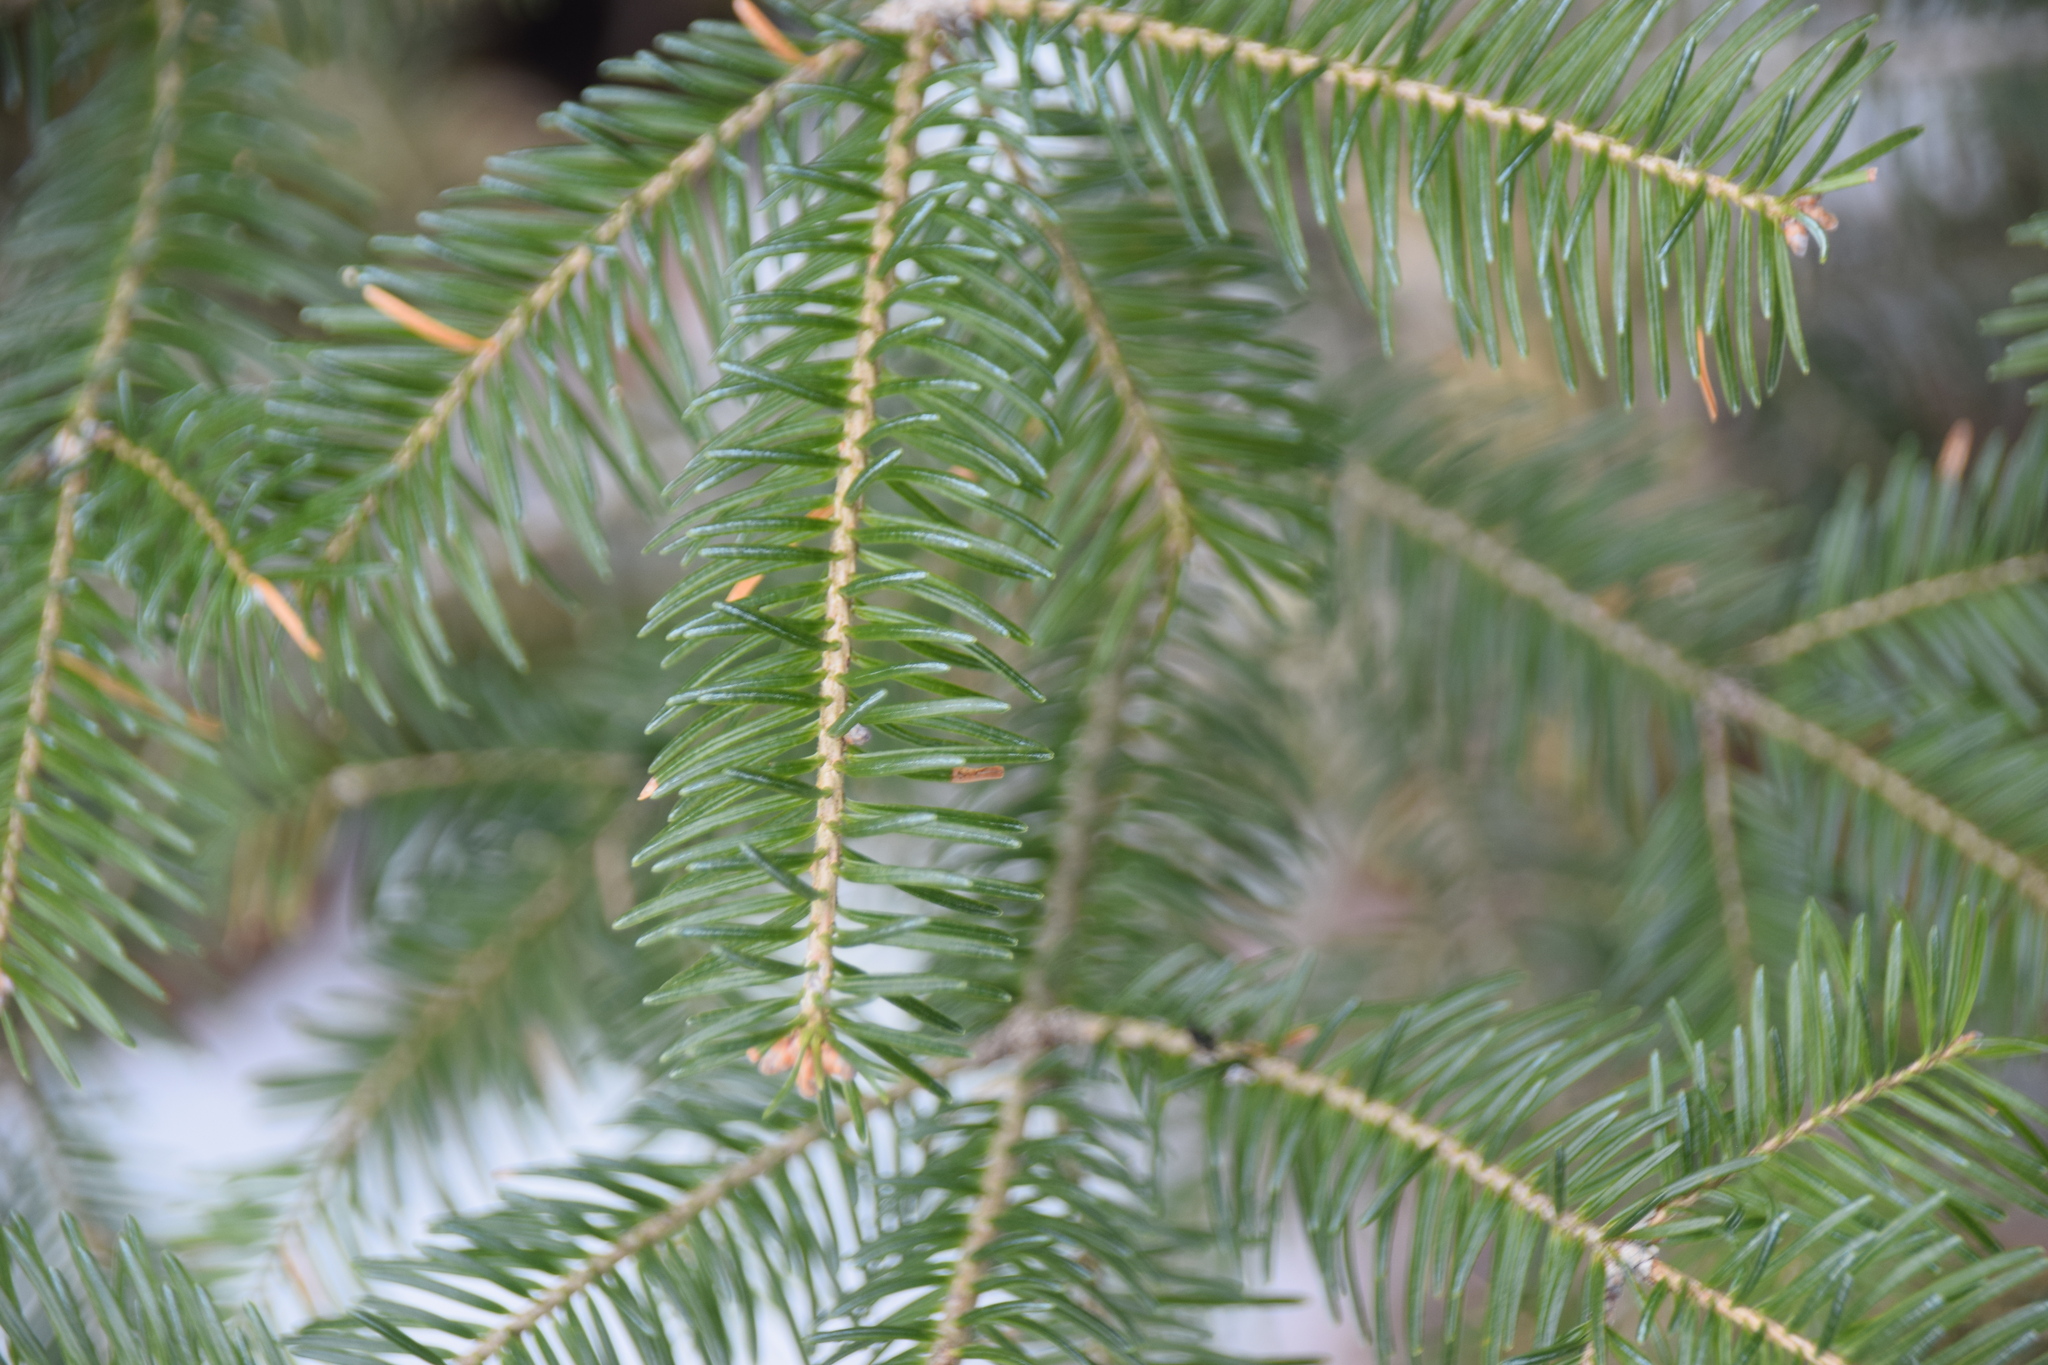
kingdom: Plantae
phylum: Tracheophyta
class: Pinopsida
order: Pinales
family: Pinaceae
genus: Abies
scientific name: Abies balsamea
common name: Balsam fir
